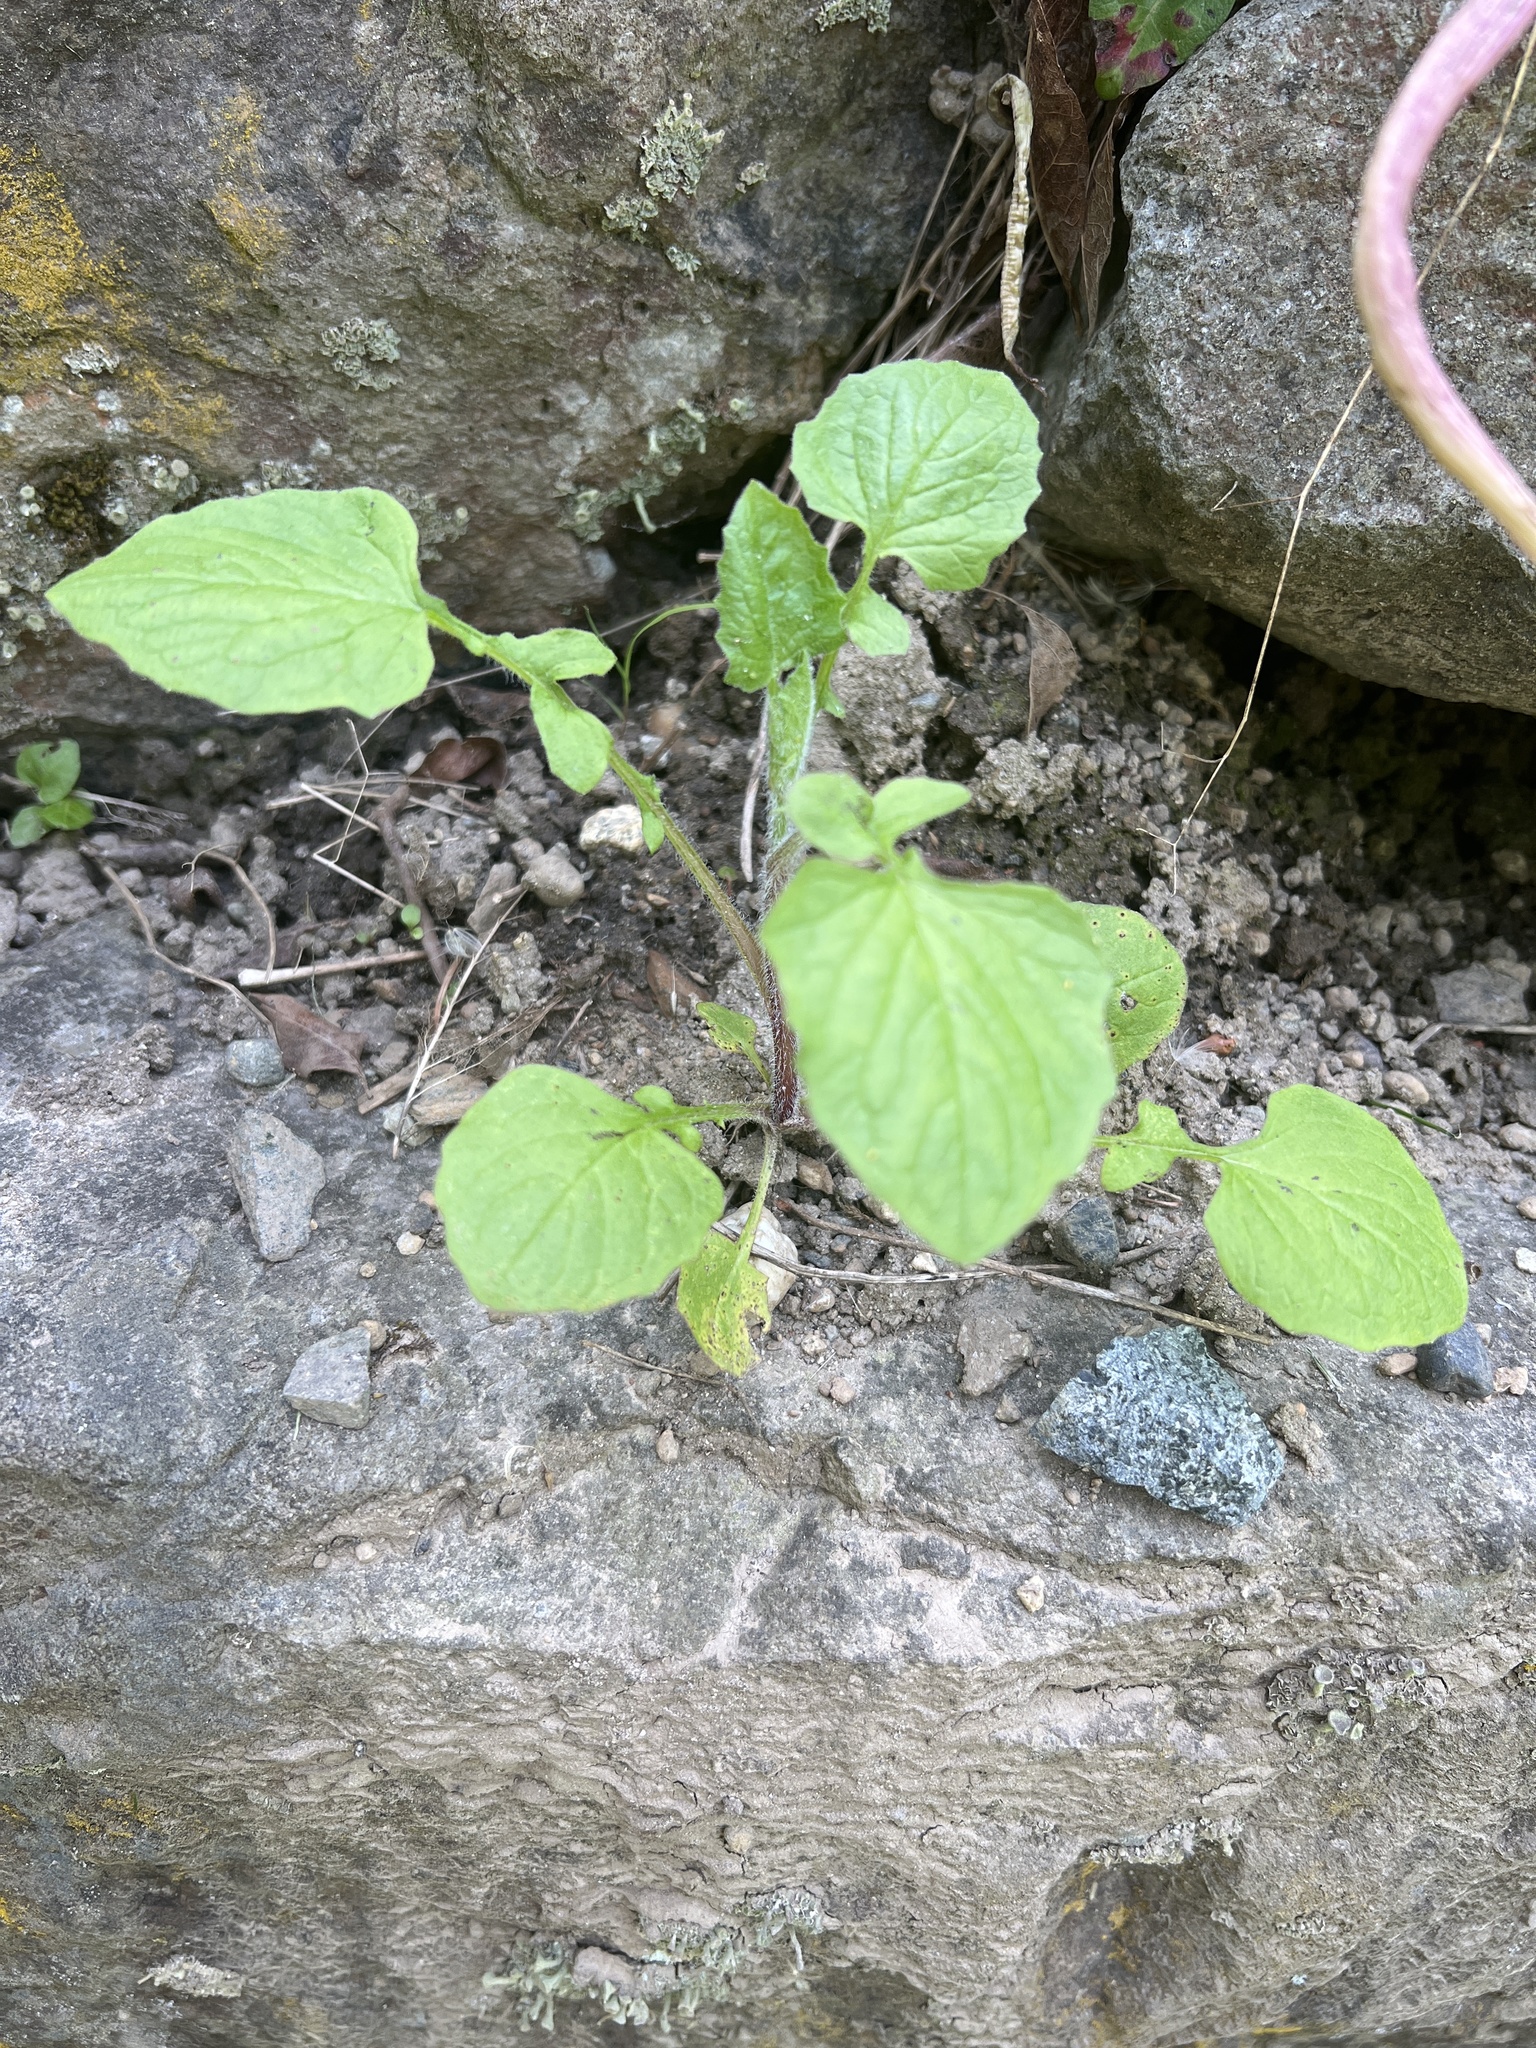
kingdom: Plantae
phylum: Tracheophyta
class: Magnoliopsida
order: Asterales
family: Asteraceae
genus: Lapsana
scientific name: Lapsana communis
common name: Nipplewort
